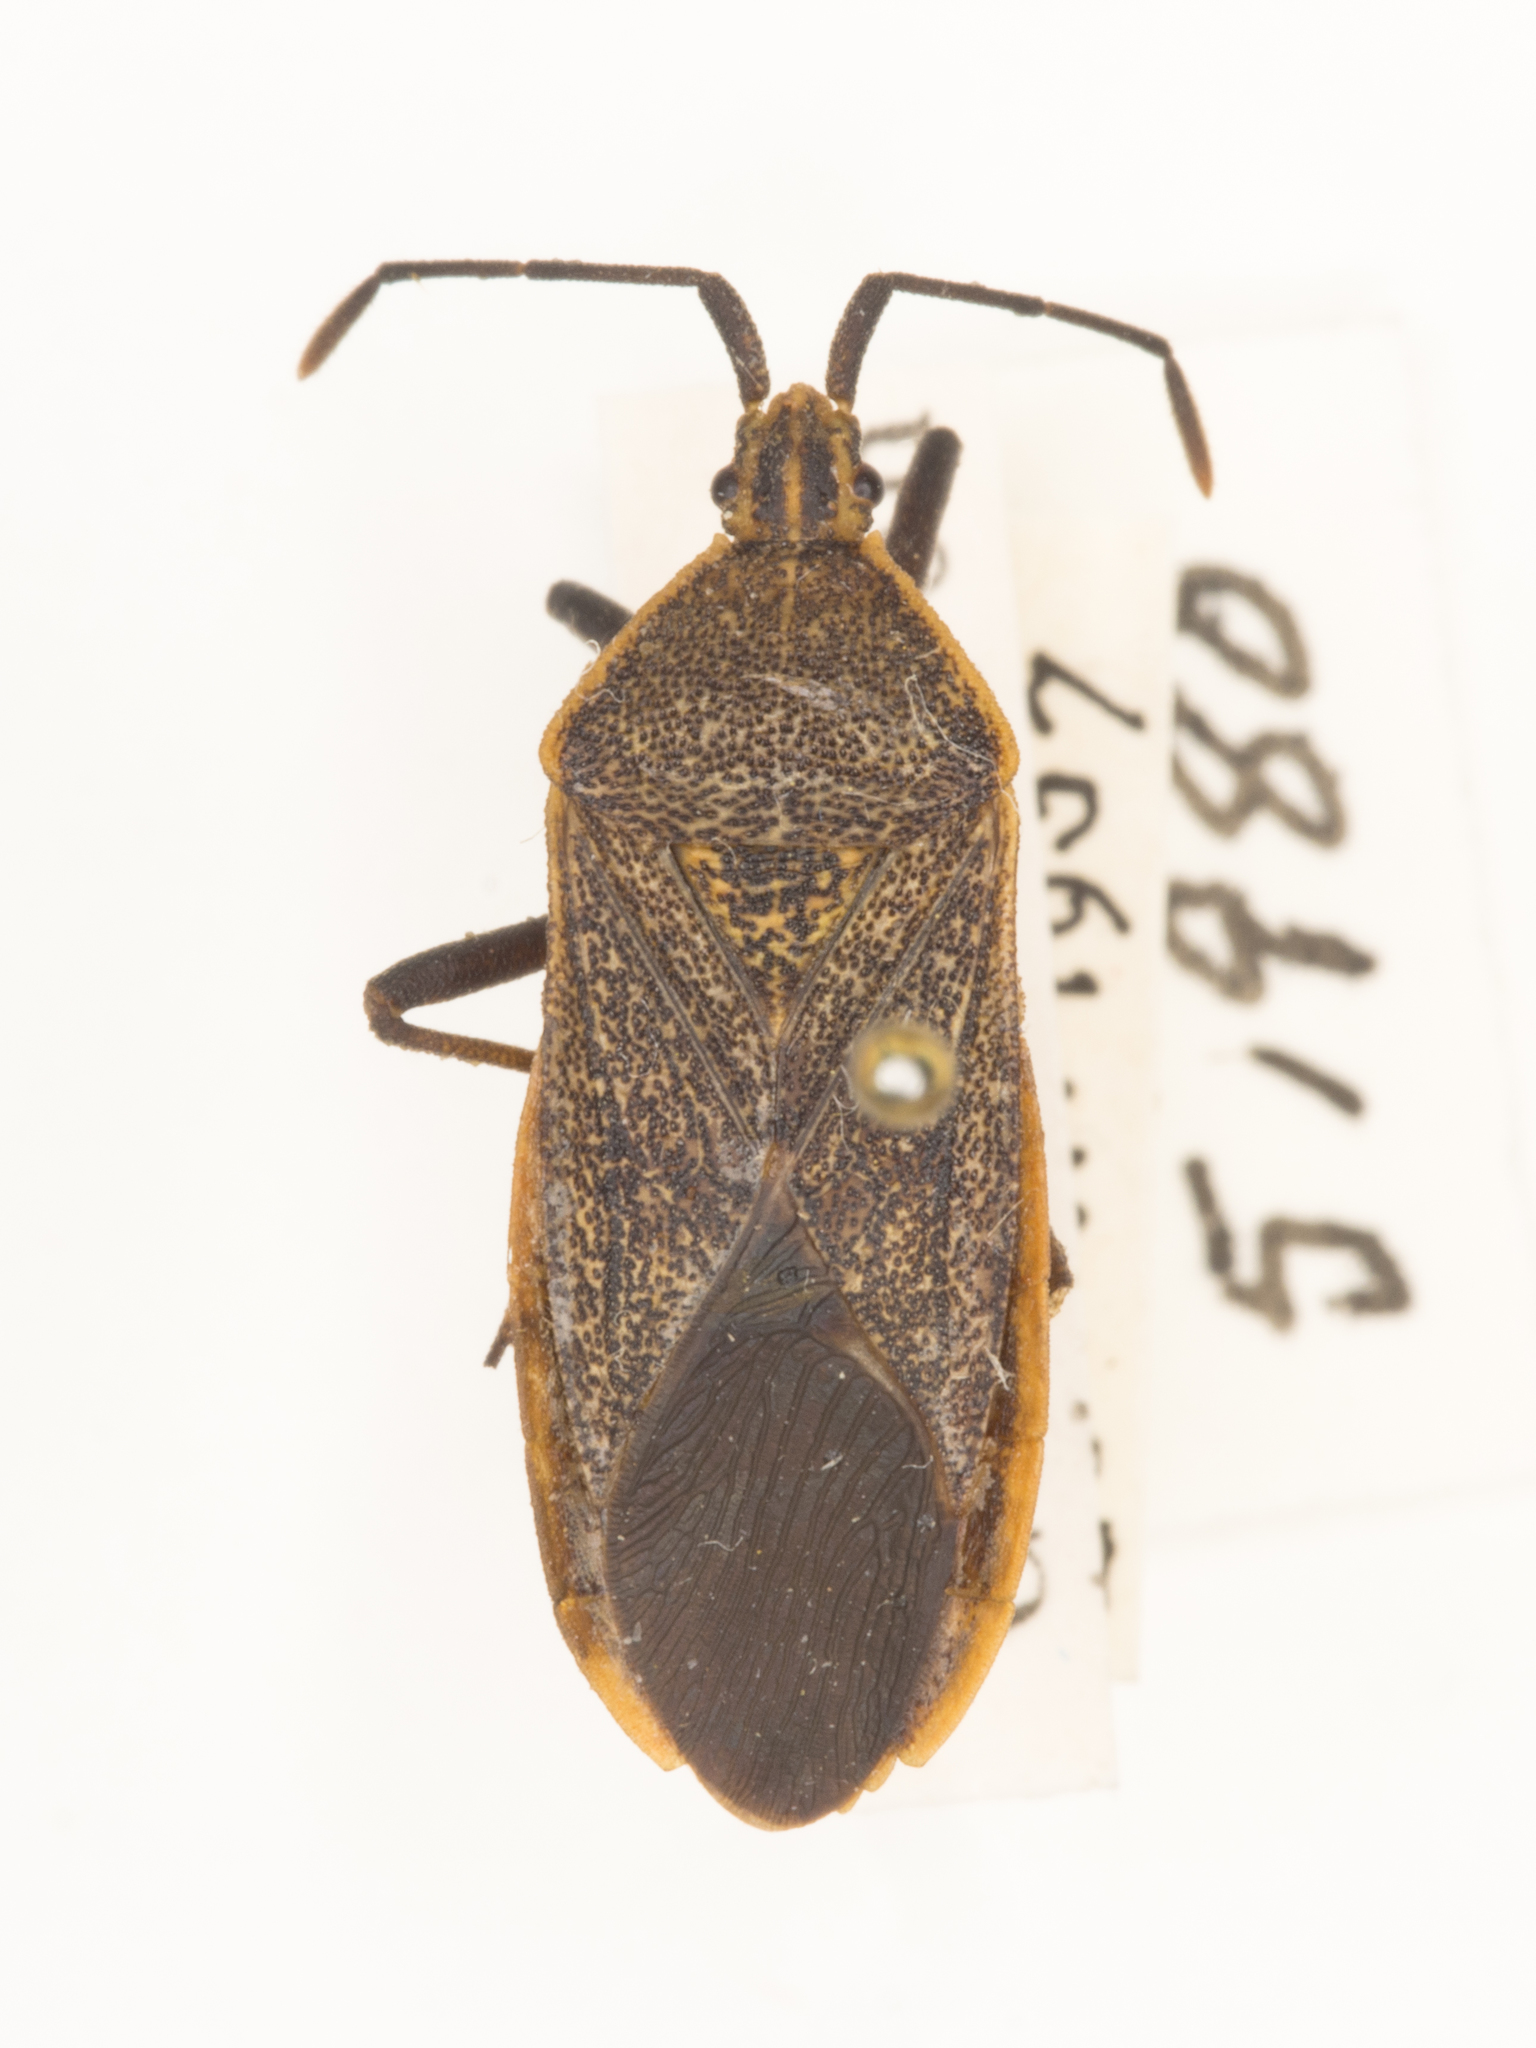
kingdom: Animalia
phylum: Arthropoda
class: Insecta
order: Hemiptera
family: Coreidae
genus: Anasa
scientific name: Anasa tristis
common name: Squash bug
